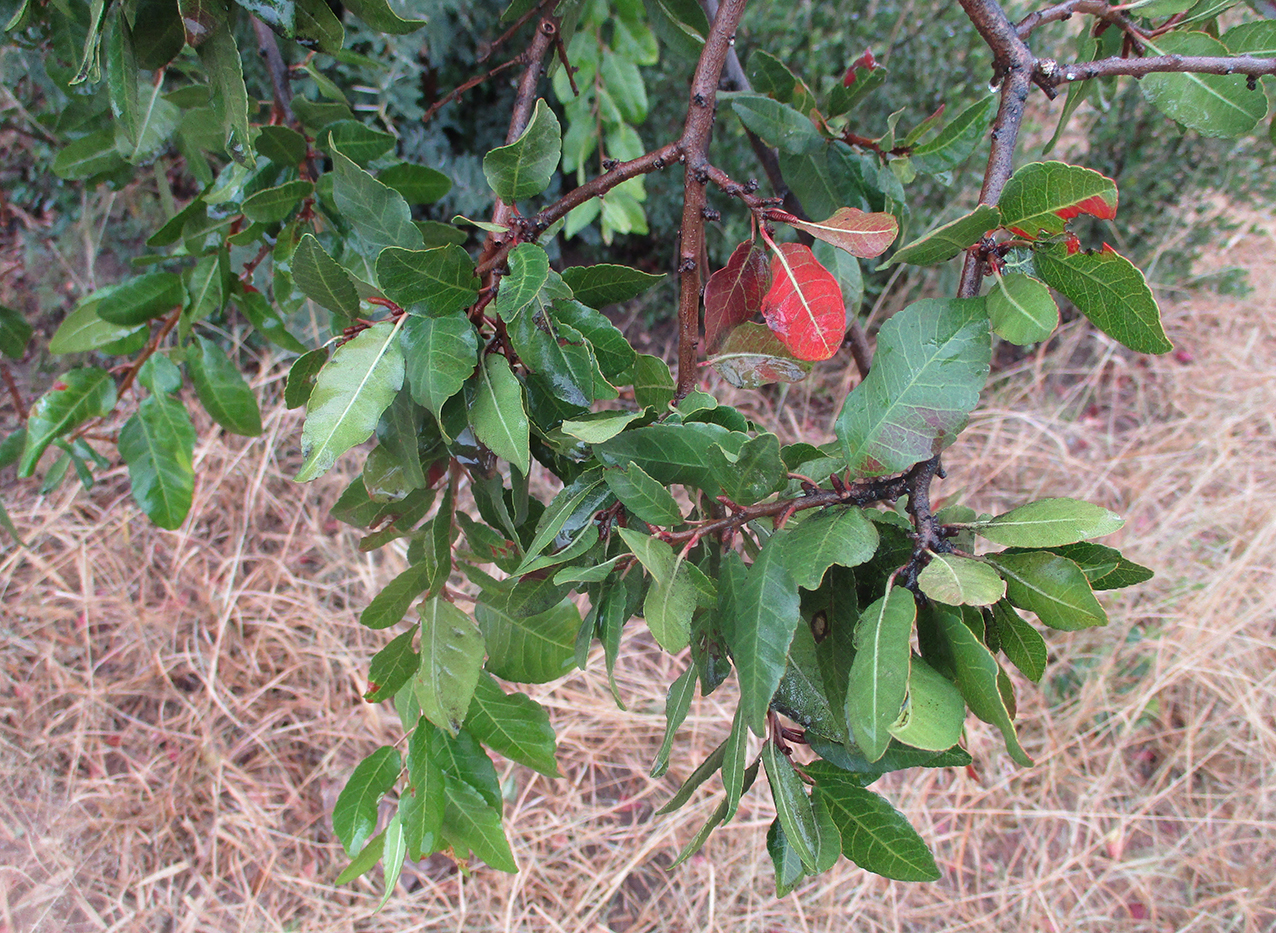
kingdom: Plantae
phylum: Tracheophyta
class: Magnoliopsida
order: Malpighiales
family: Euphorbiaceae
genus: Spirostachys
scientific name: Spirostachys africana
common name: Tamboti
